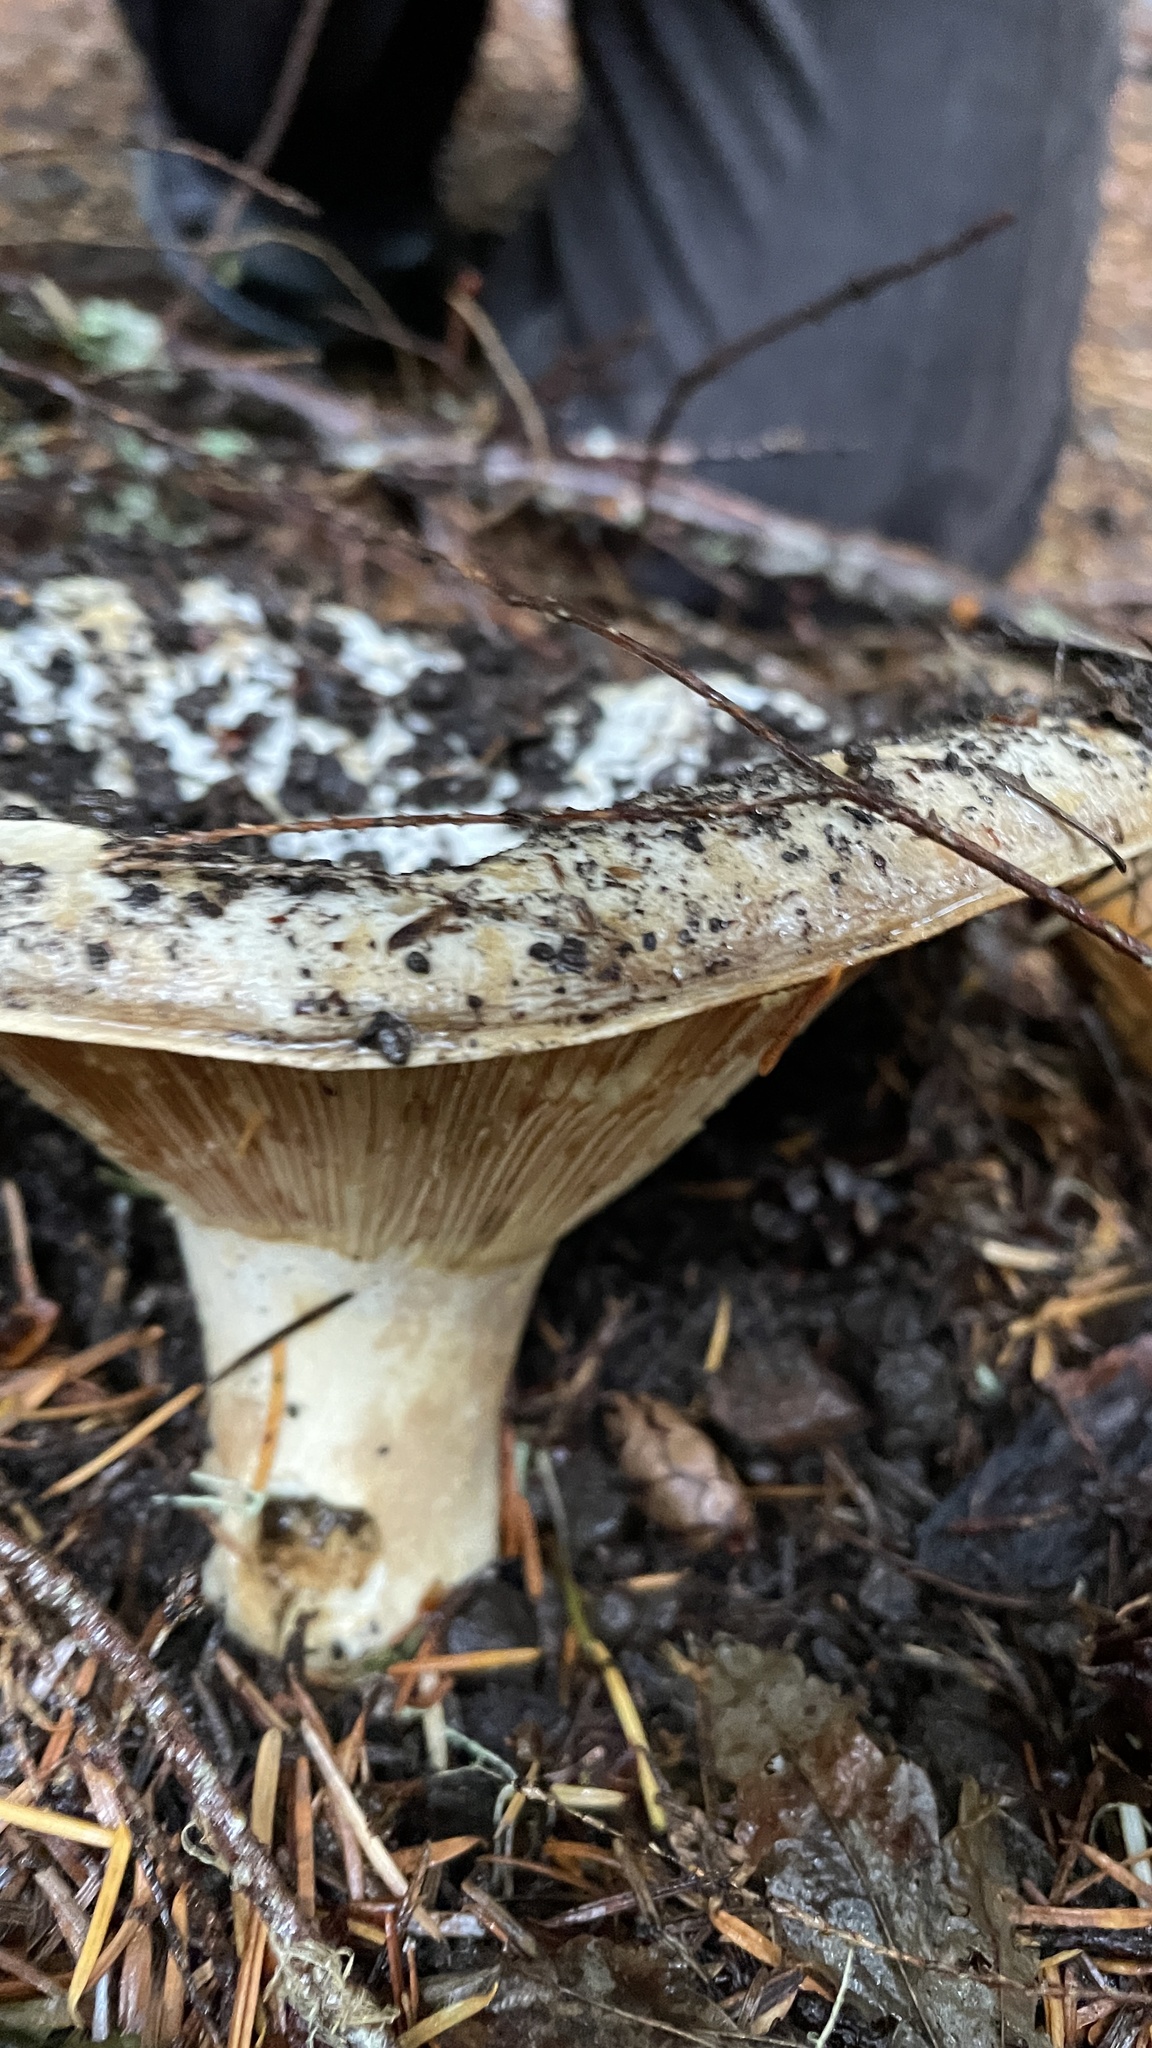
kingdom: Fungi
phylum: Basidiomycota
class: Agaricomycetes
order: Russulales
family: Russulaceae
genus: Russula
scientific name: Russula brevipes
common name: Short-stemmed russula
